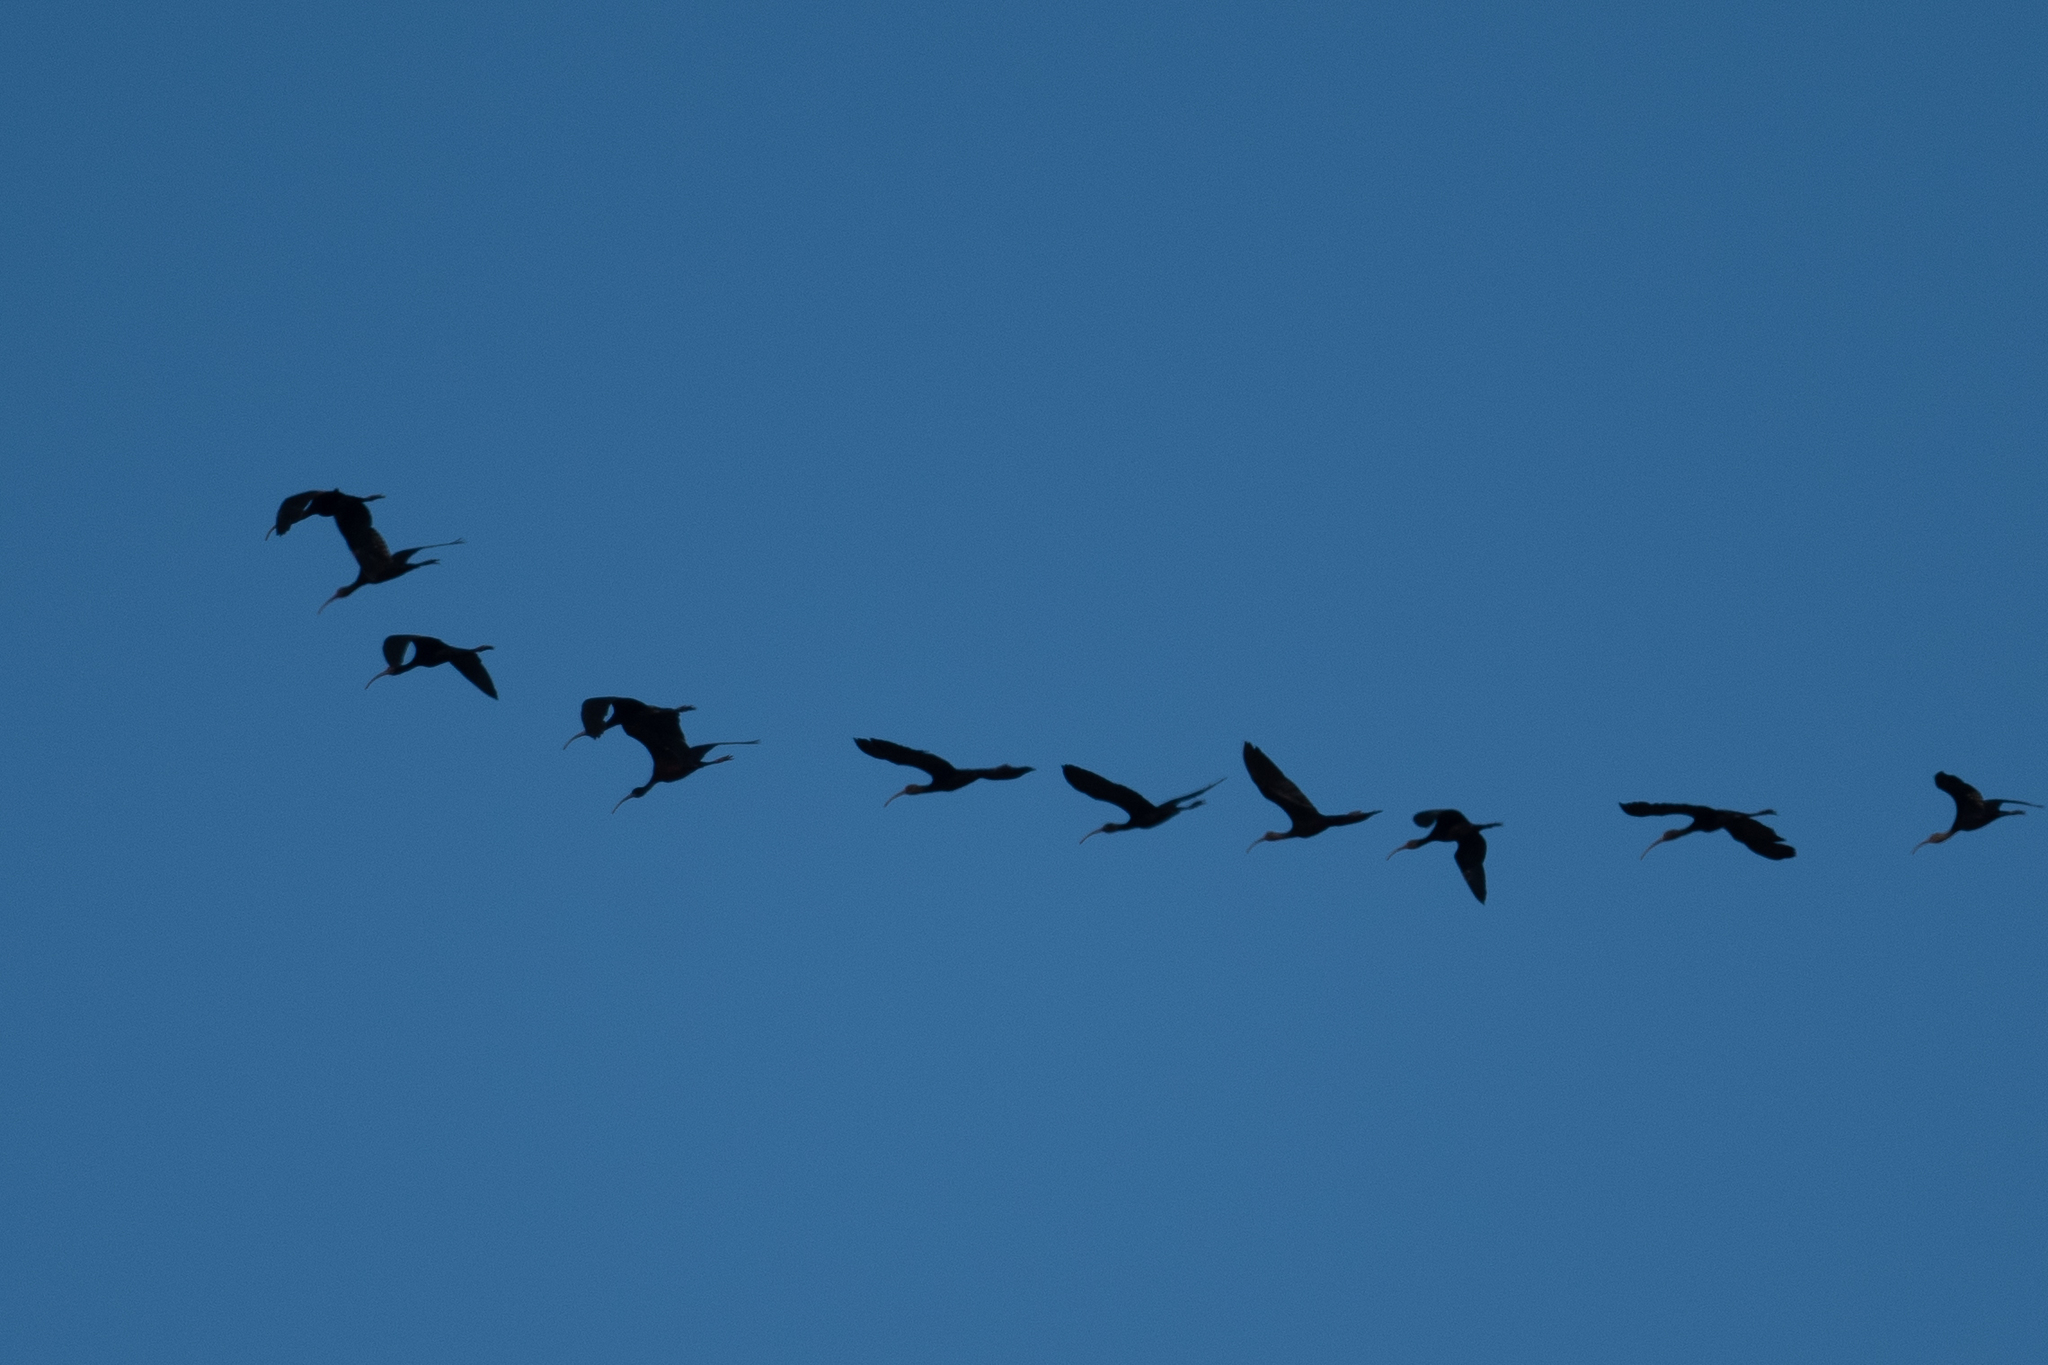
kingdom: Animalia
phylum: Chordata
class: Aves
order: Pelecaniformes
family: Threskiornithidae
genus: Plegadis
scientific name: Plegadis chihi
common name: White-faced ibis
